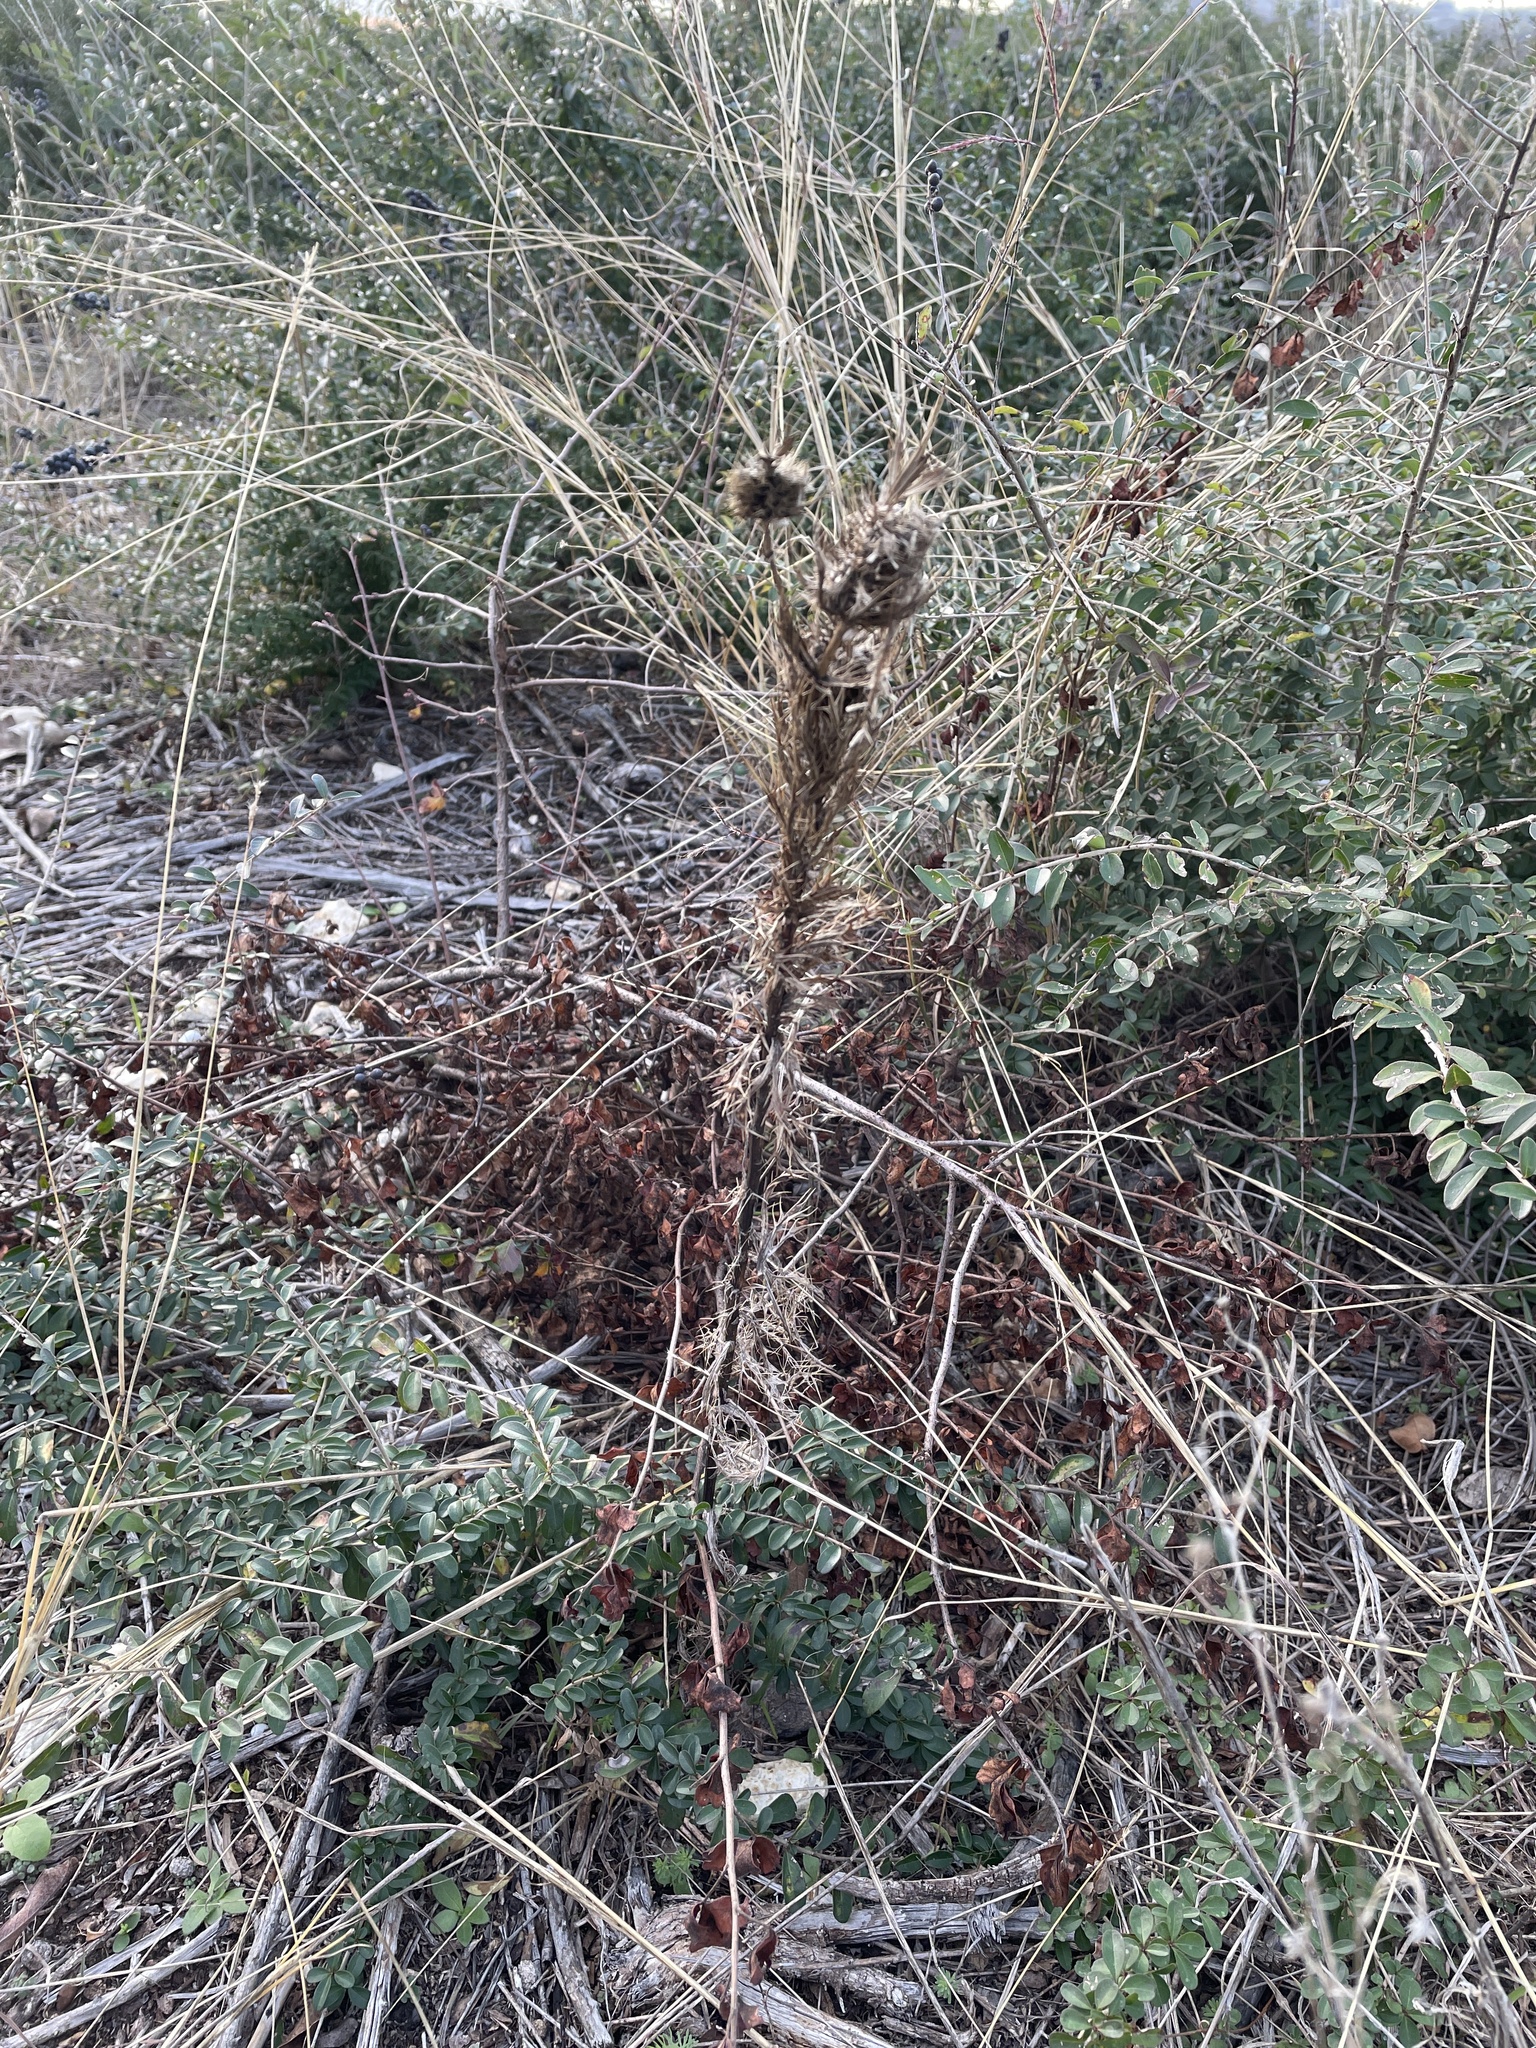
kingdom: Plantae
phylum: Tracheophyta
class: Magnoliopsida
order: Apiales
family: Apiaceae
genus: Eryngium
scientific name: Eryngium leavenworthii
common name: Leavenworth's eryngo
